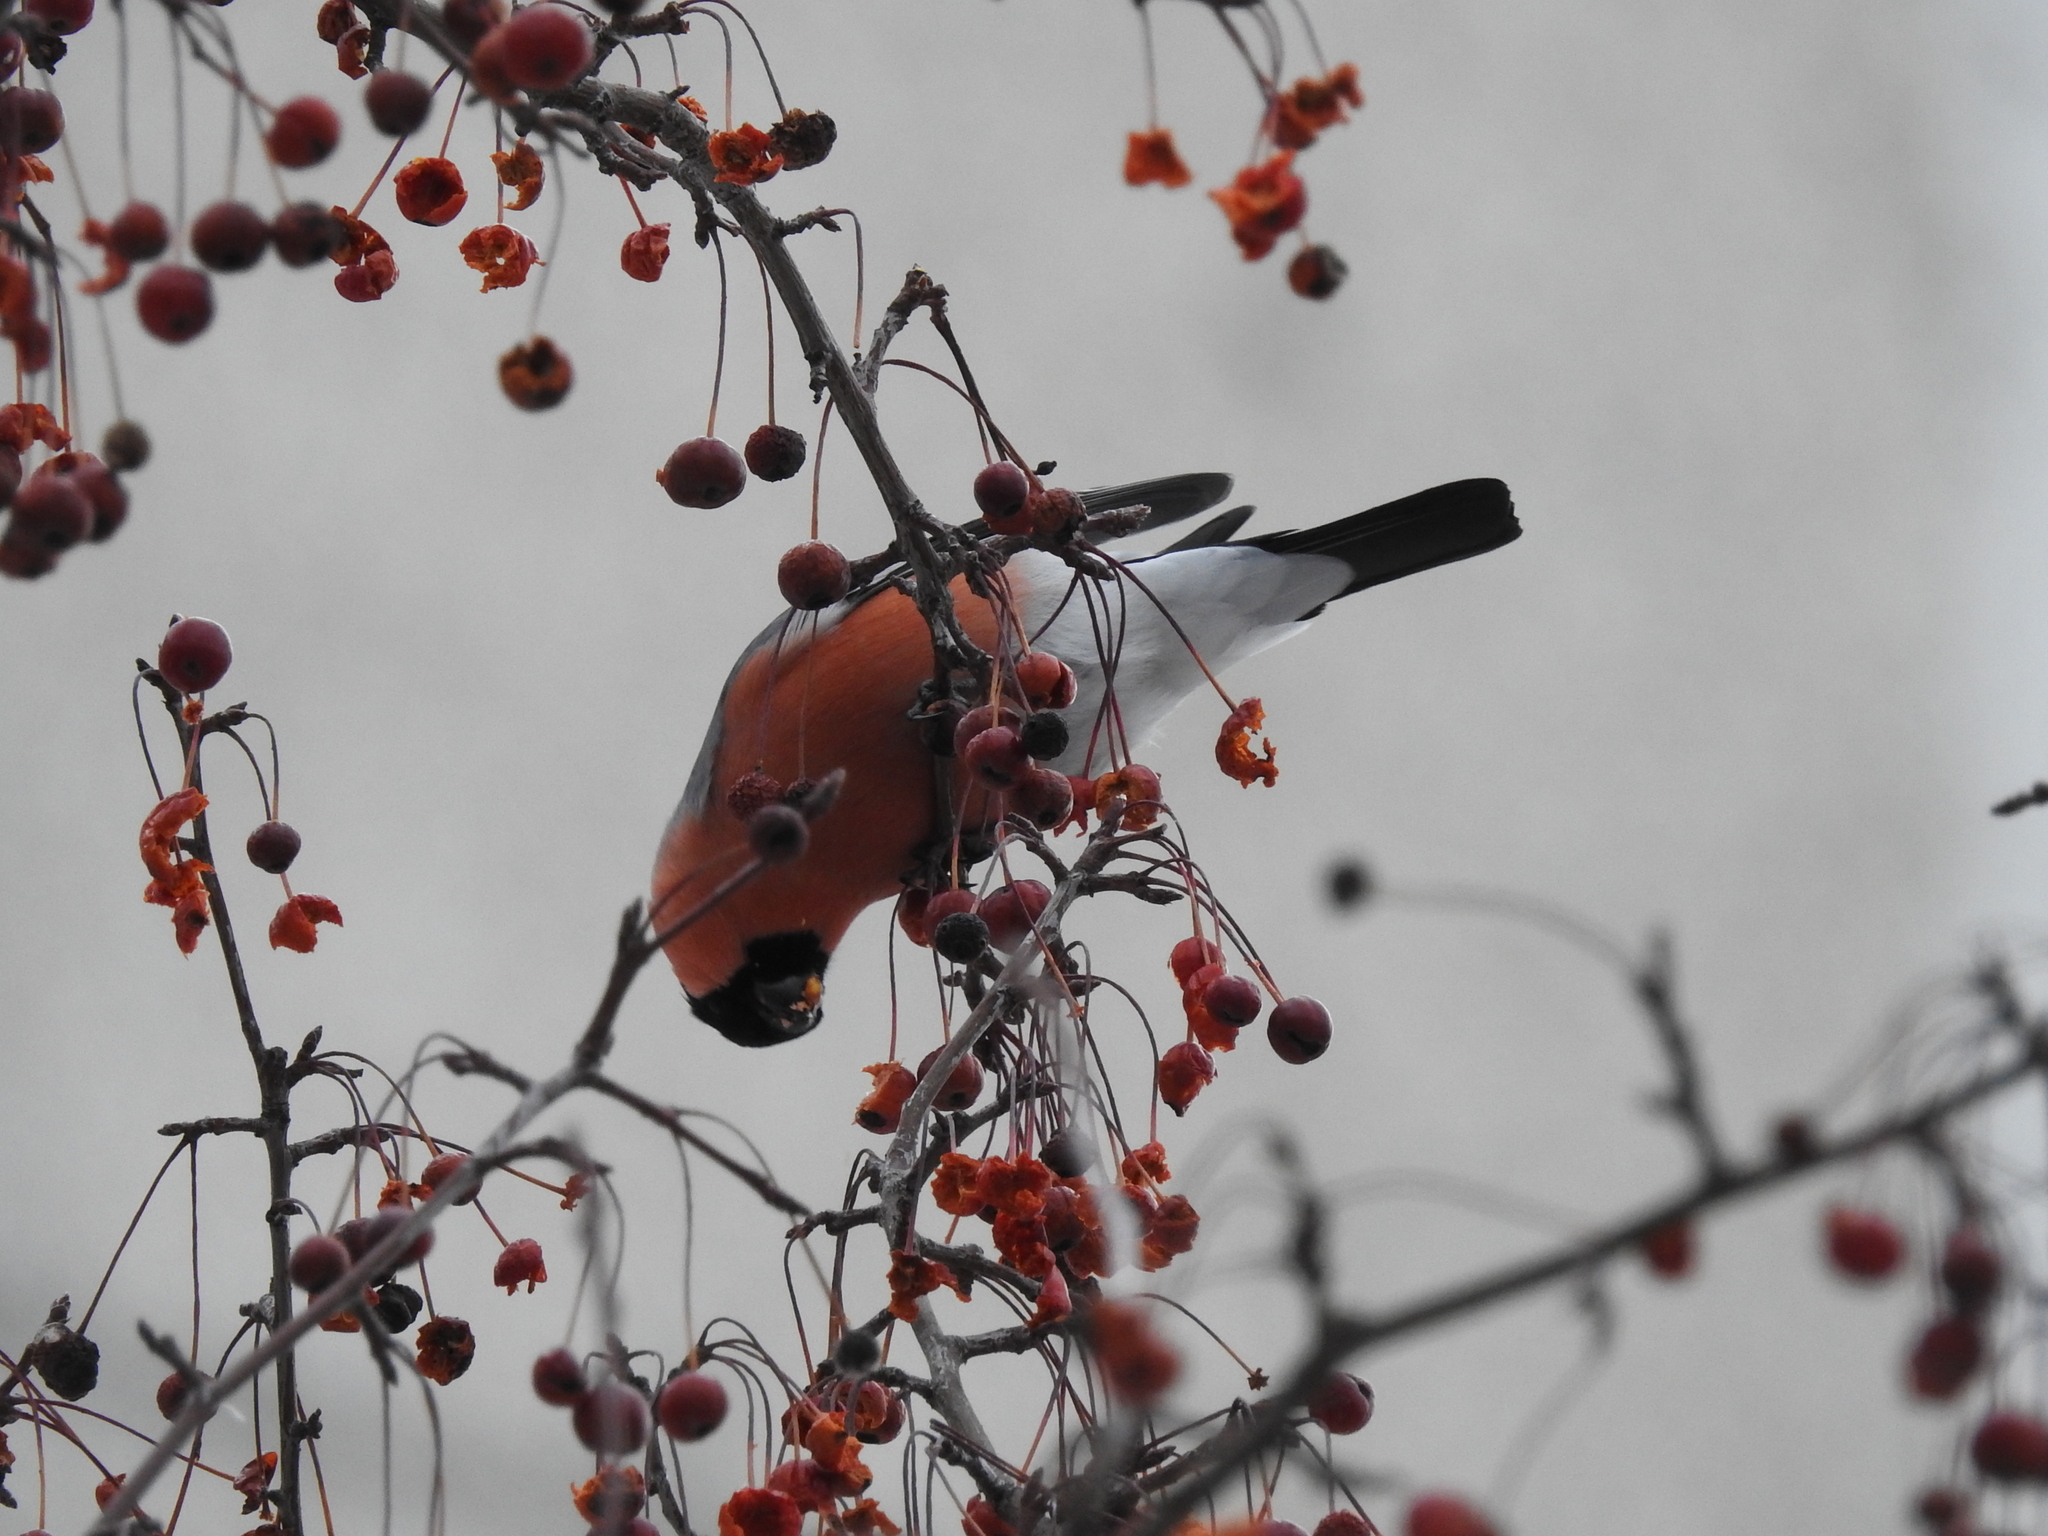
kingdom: Animalia
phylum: Chordata
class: Aves
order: Passeriformes
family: Fringillidae
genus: Pyrrhula
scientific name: Pyrrhula pyrrhula
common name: Eurasian bullfinch
